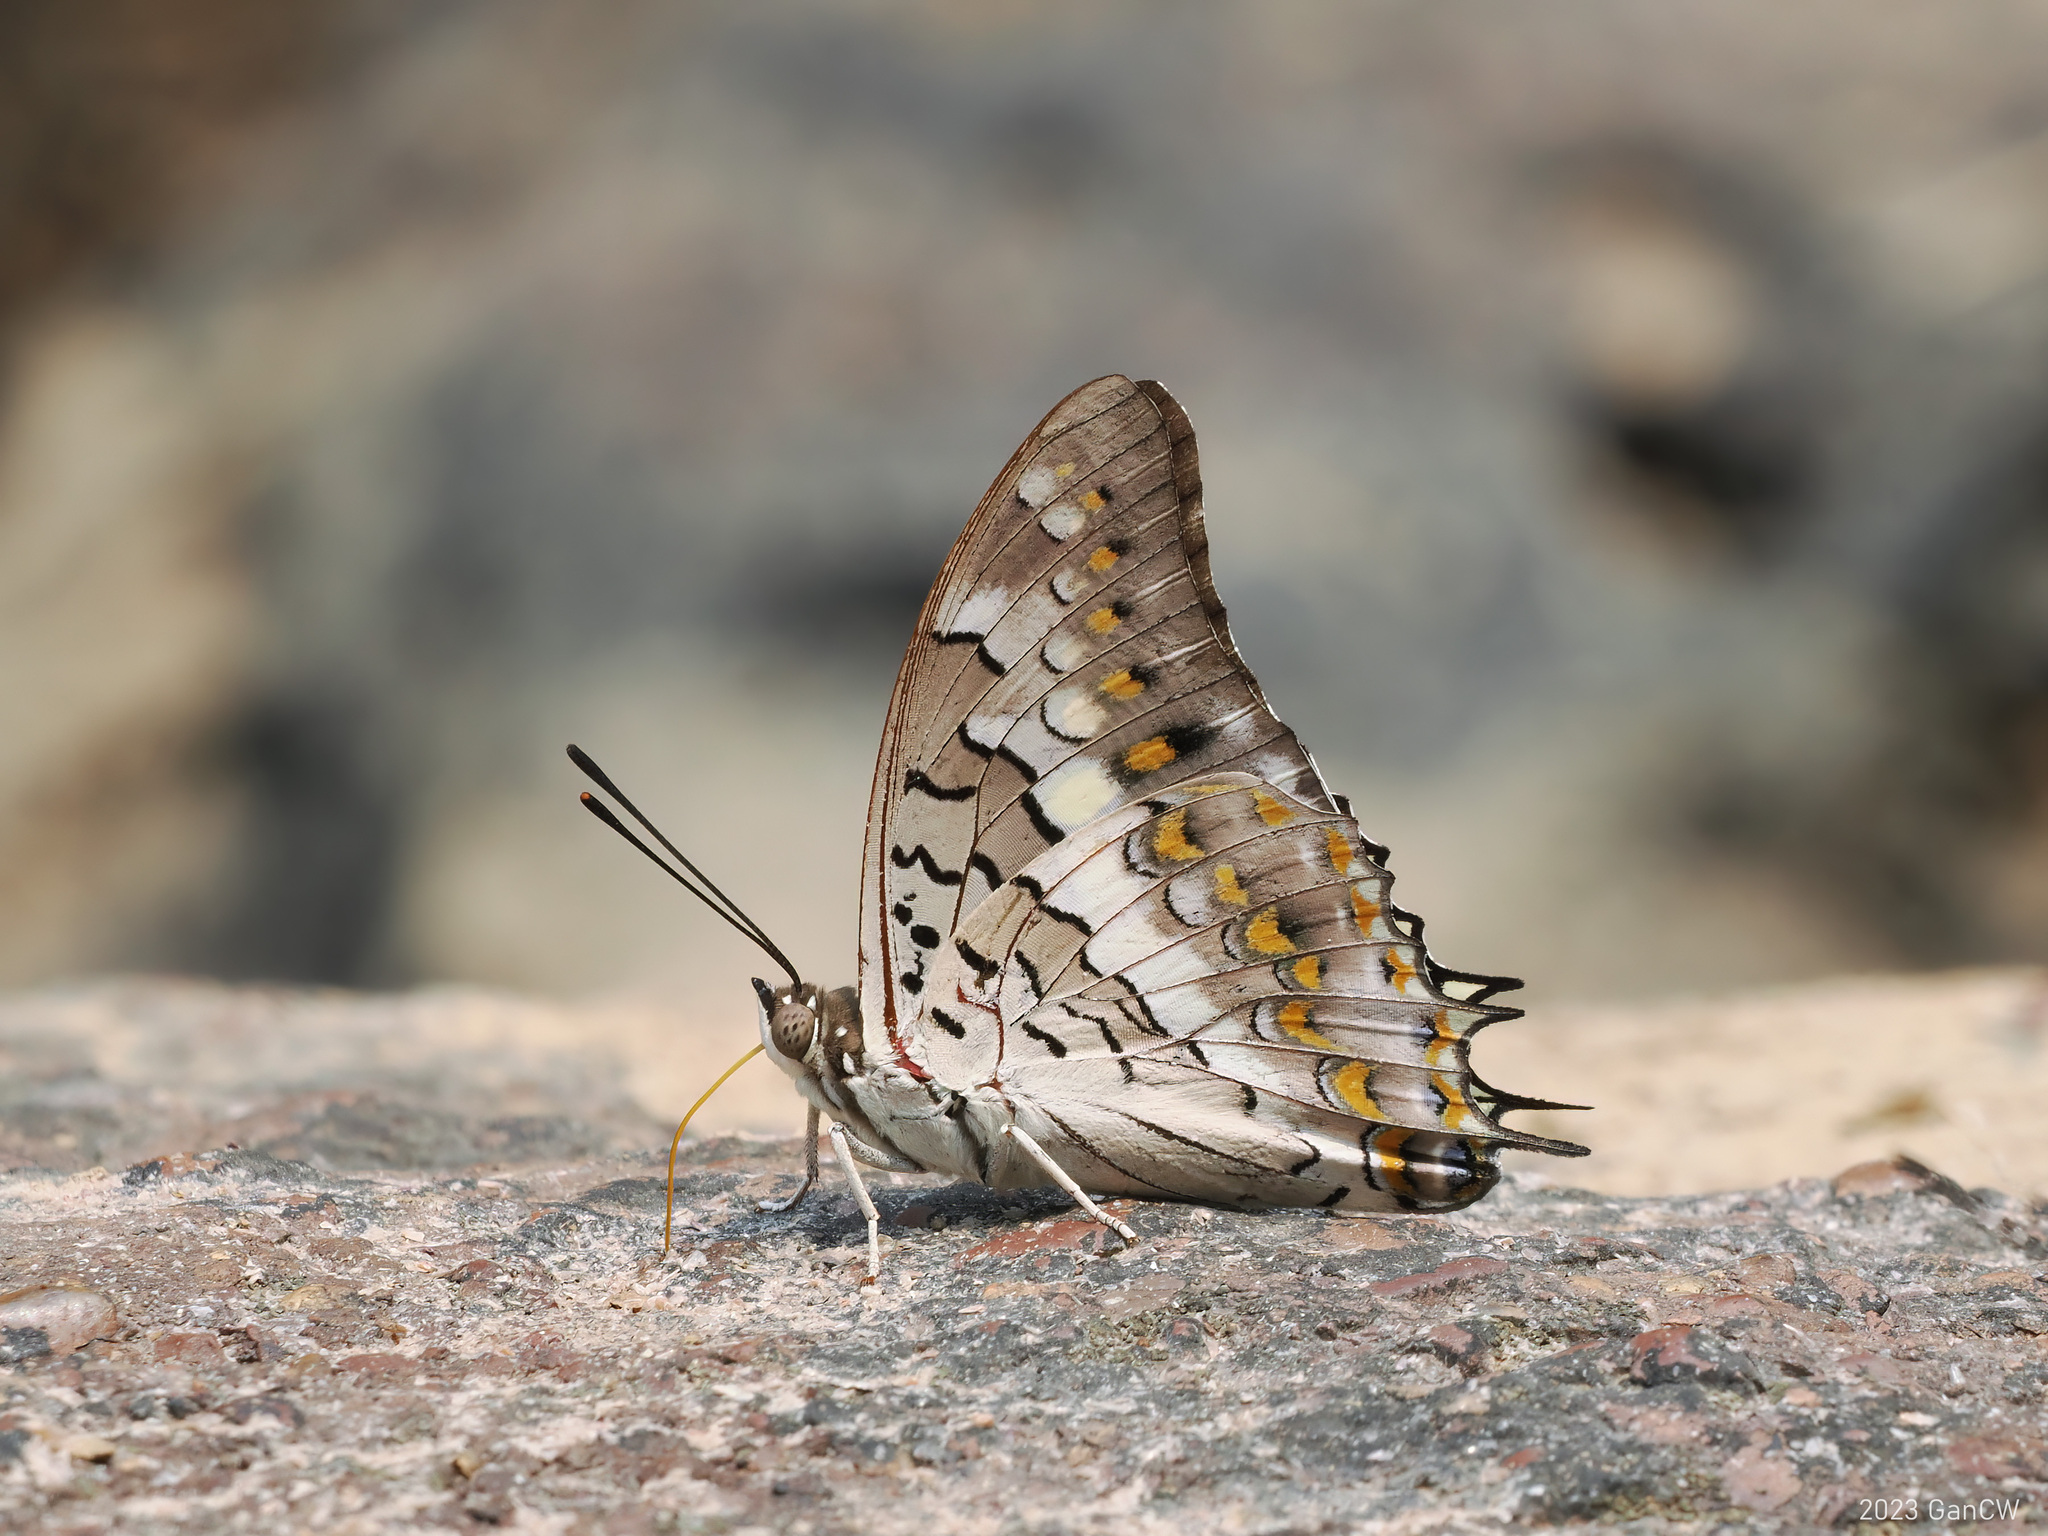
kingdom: Animalia
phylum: Arthropoda
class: Insecta
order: Lepidoptera
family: Nymphalidae
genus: Charaxes
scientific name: Charaxes solon
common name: Black rajah
